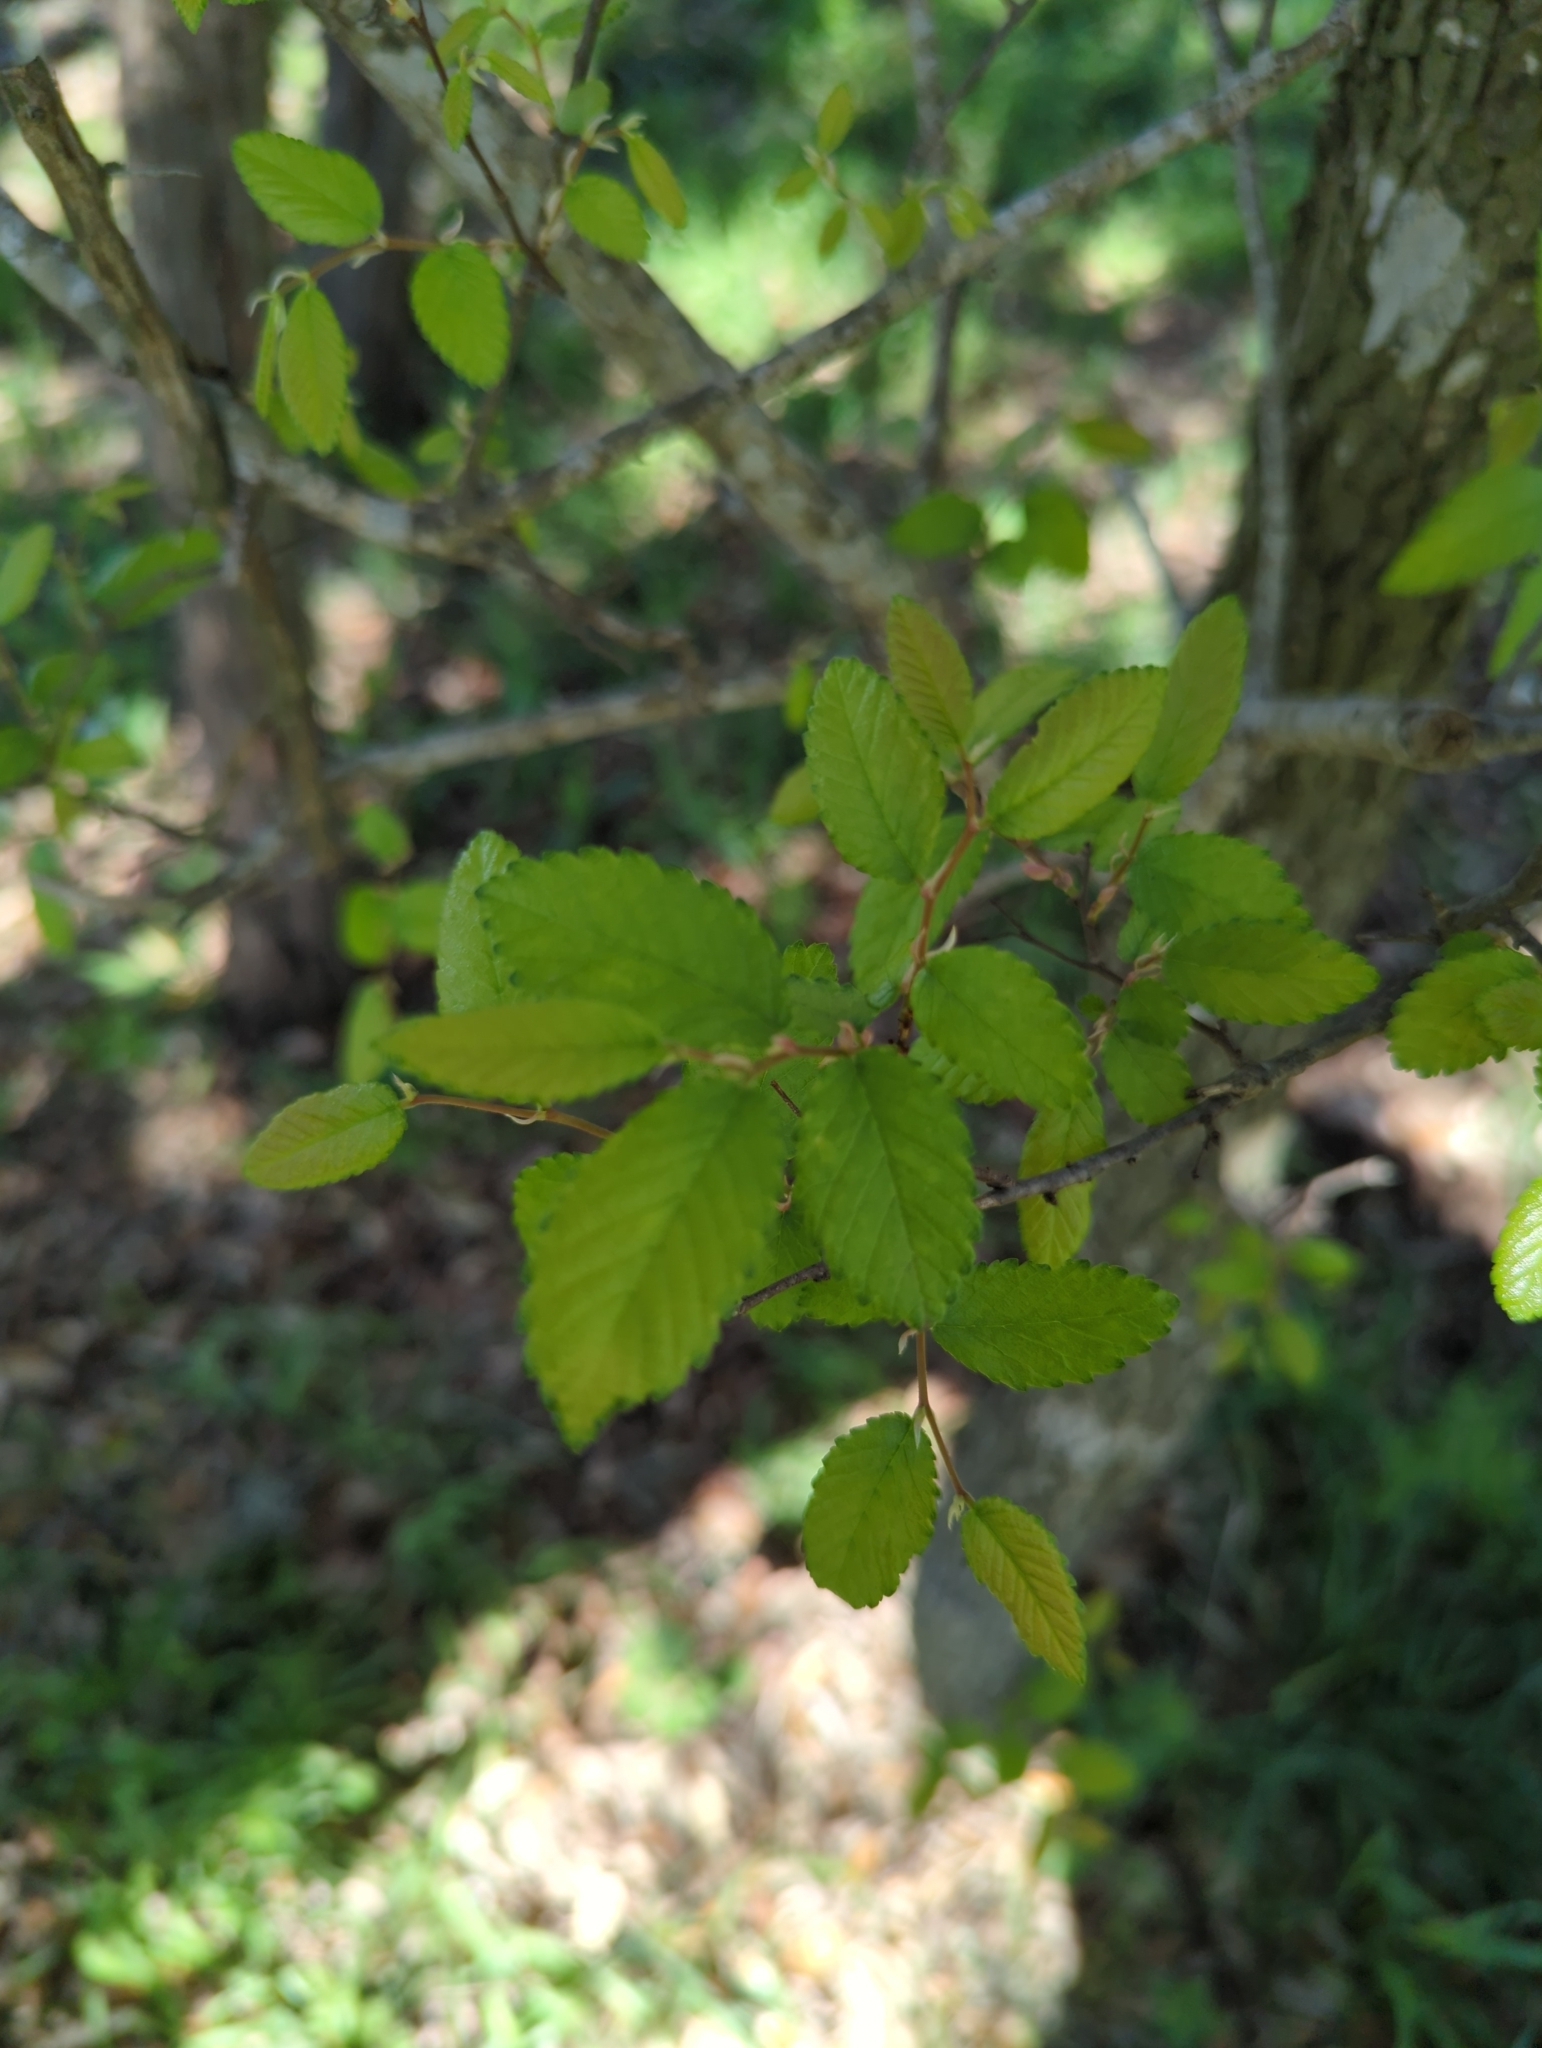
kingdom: Plantae
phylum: Tracheophyta
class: Magnoliopsida
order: Rosales
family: Ulmaceae
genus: Ulmus
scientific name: Ulmus crassifolia
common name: Basket elm
